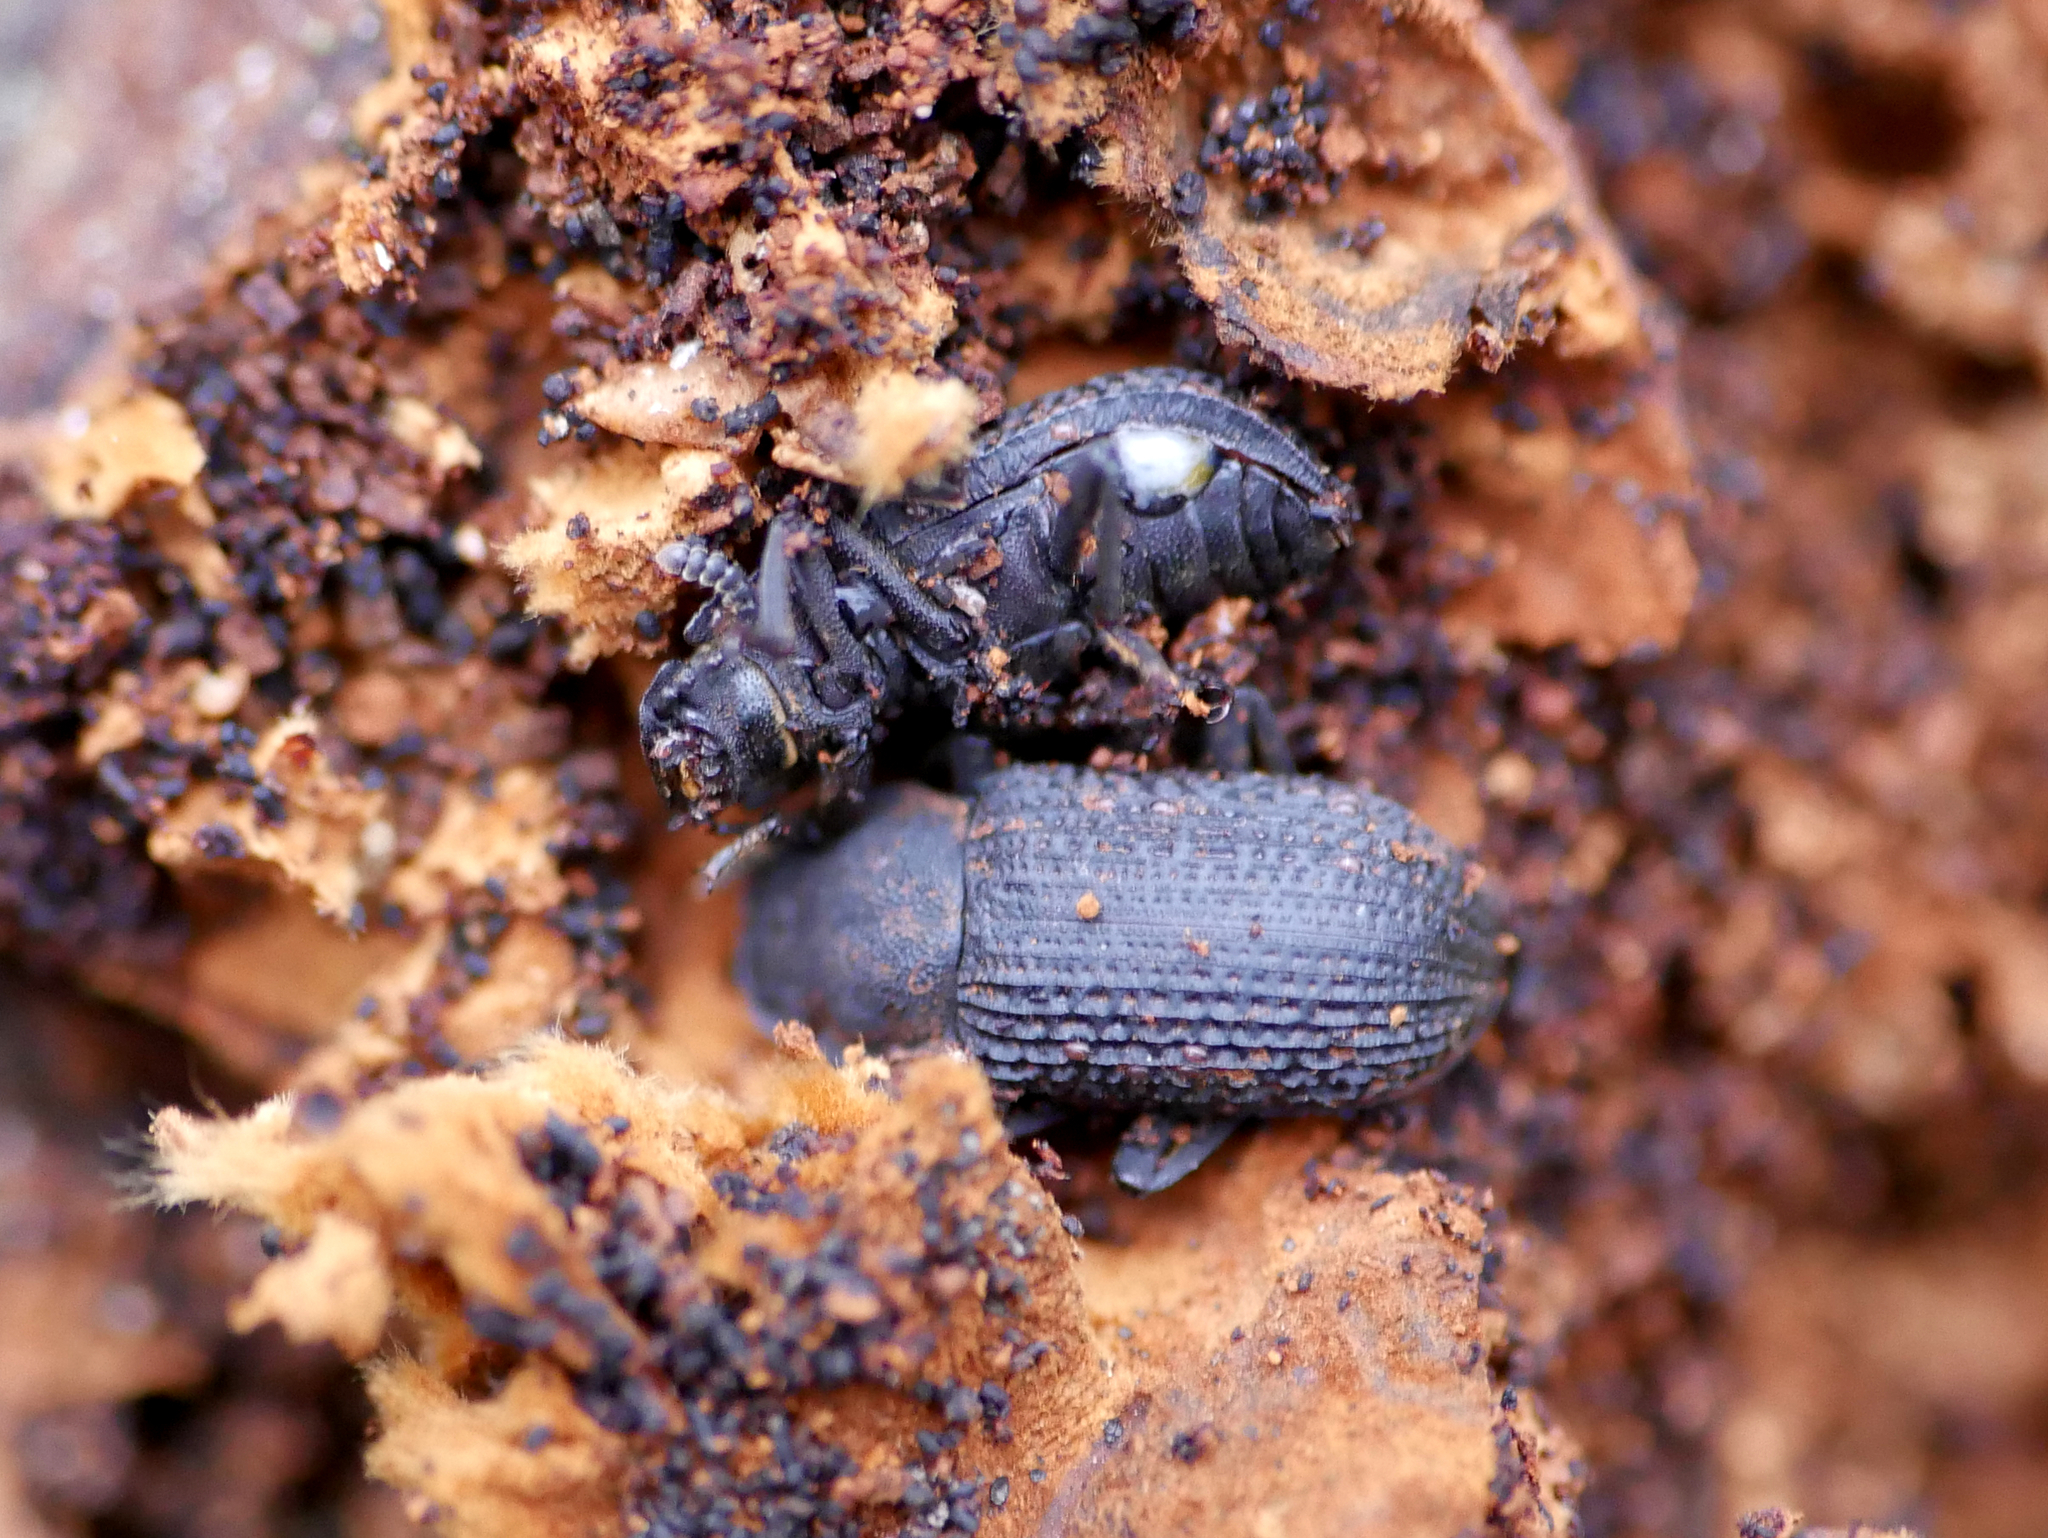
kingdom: Animalia
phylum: Arthropoda
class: Insecta
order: Coleoptera
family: Tenebrionidae
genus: Bolitophagus
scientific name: Bolitophagus reticulatus
